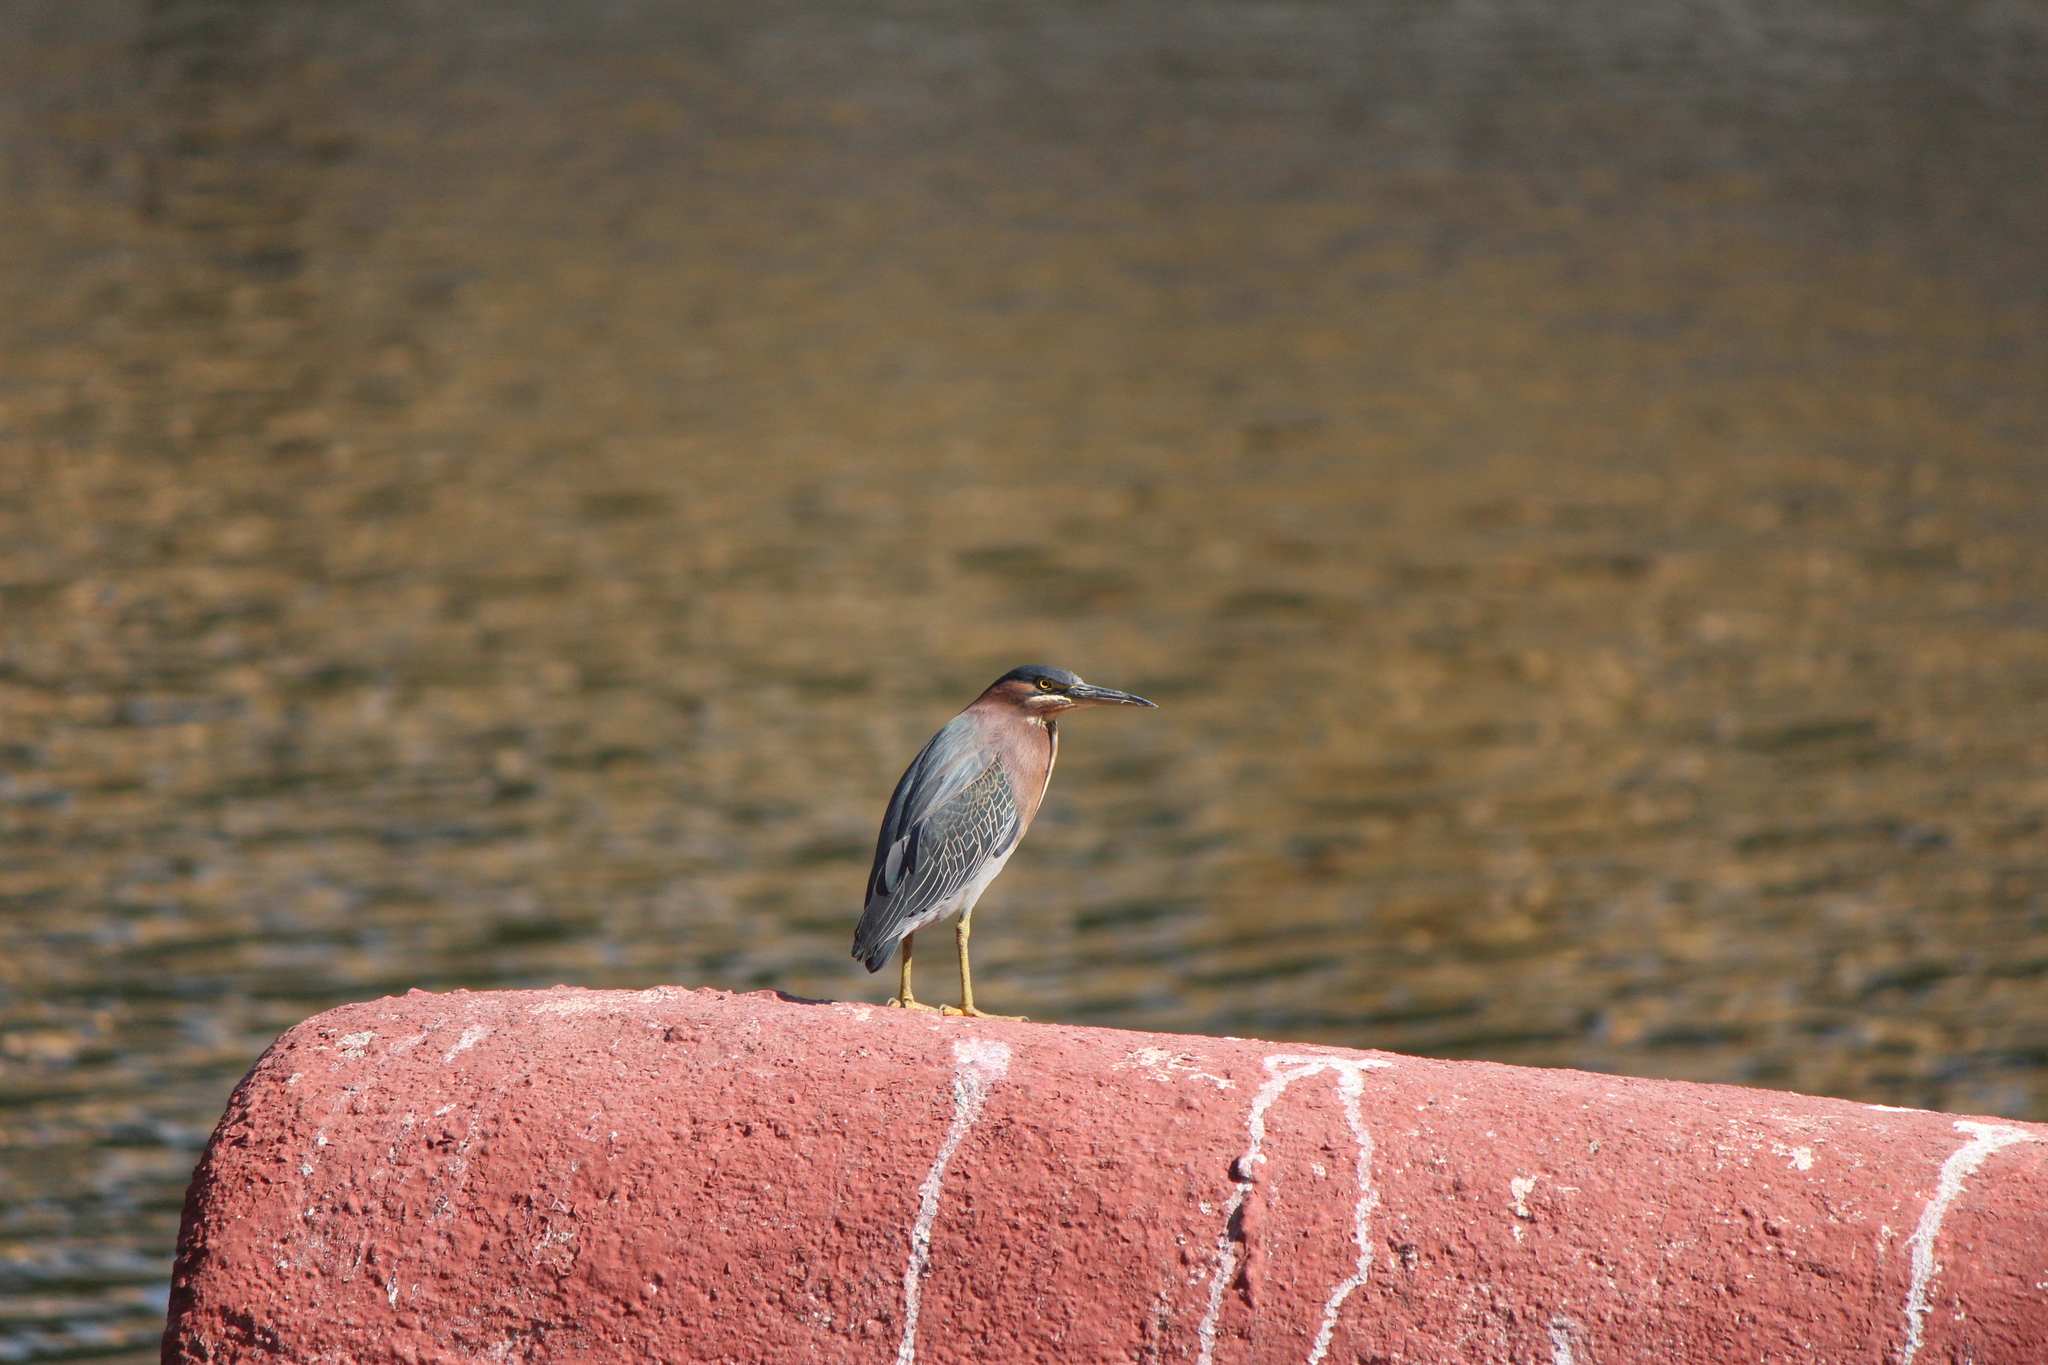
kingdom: Animalia
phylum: Chordata
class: Aves
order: Pelecaniformes
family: Ardeidae
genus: Butorides
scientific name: Butorides virescens
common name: Green heron
